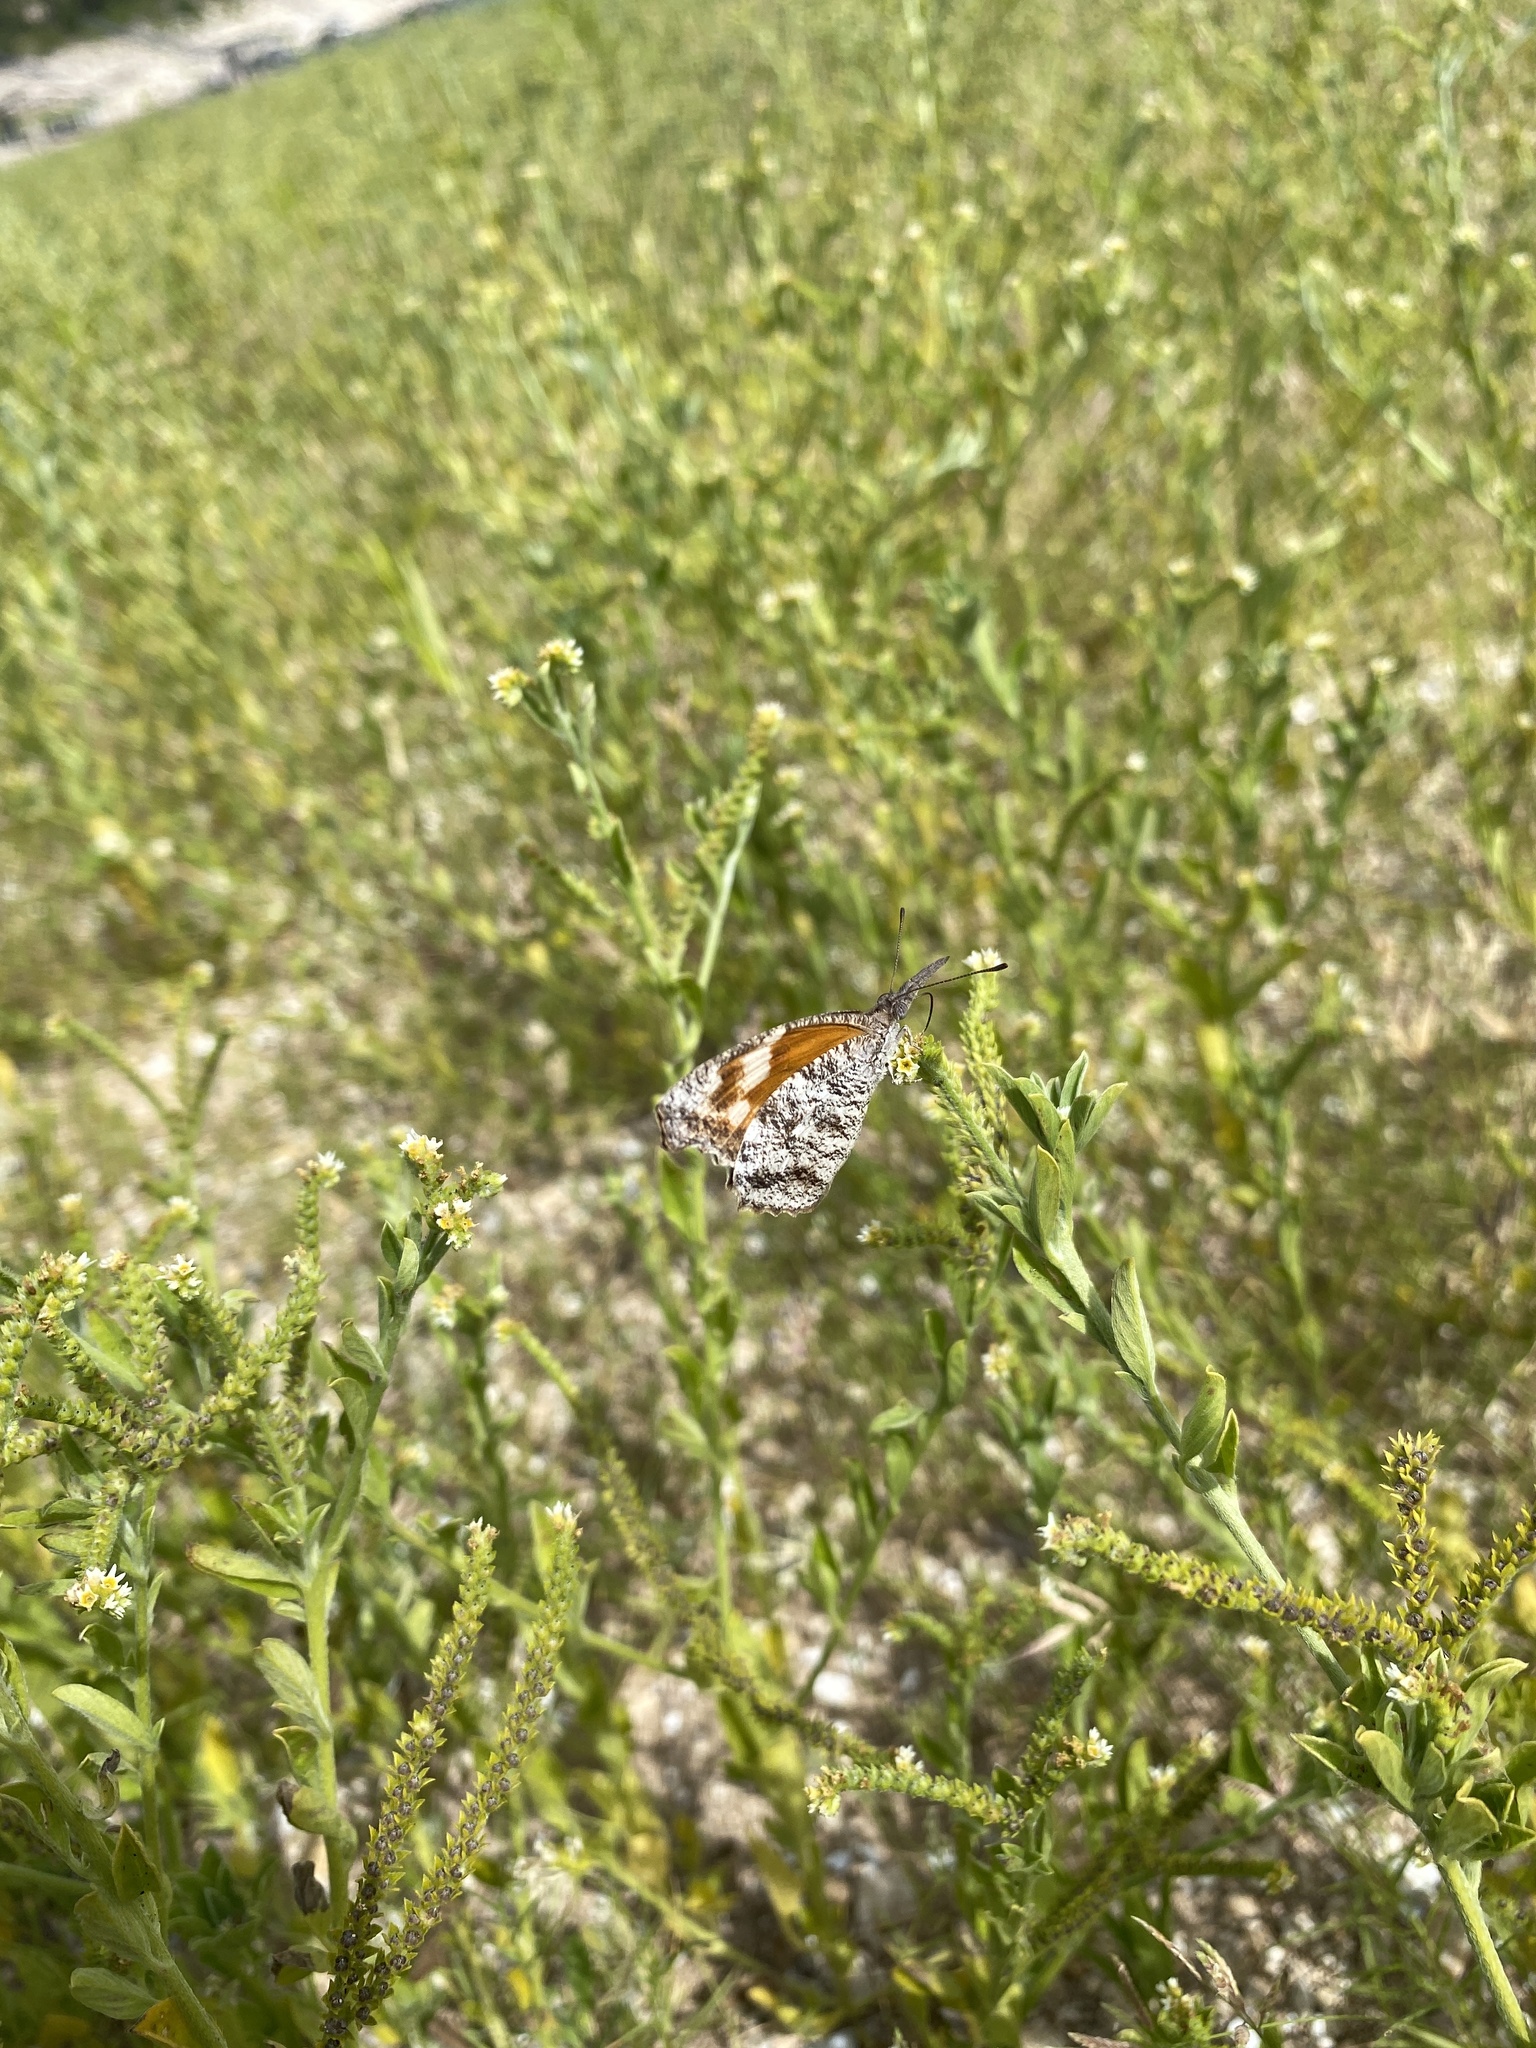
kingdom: Animalia
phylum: Arthropoda
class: Insecta
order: Lepidoptera
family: Nymphalidae
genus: Libytheana
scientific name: Libytheana carinenta
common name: American snout
